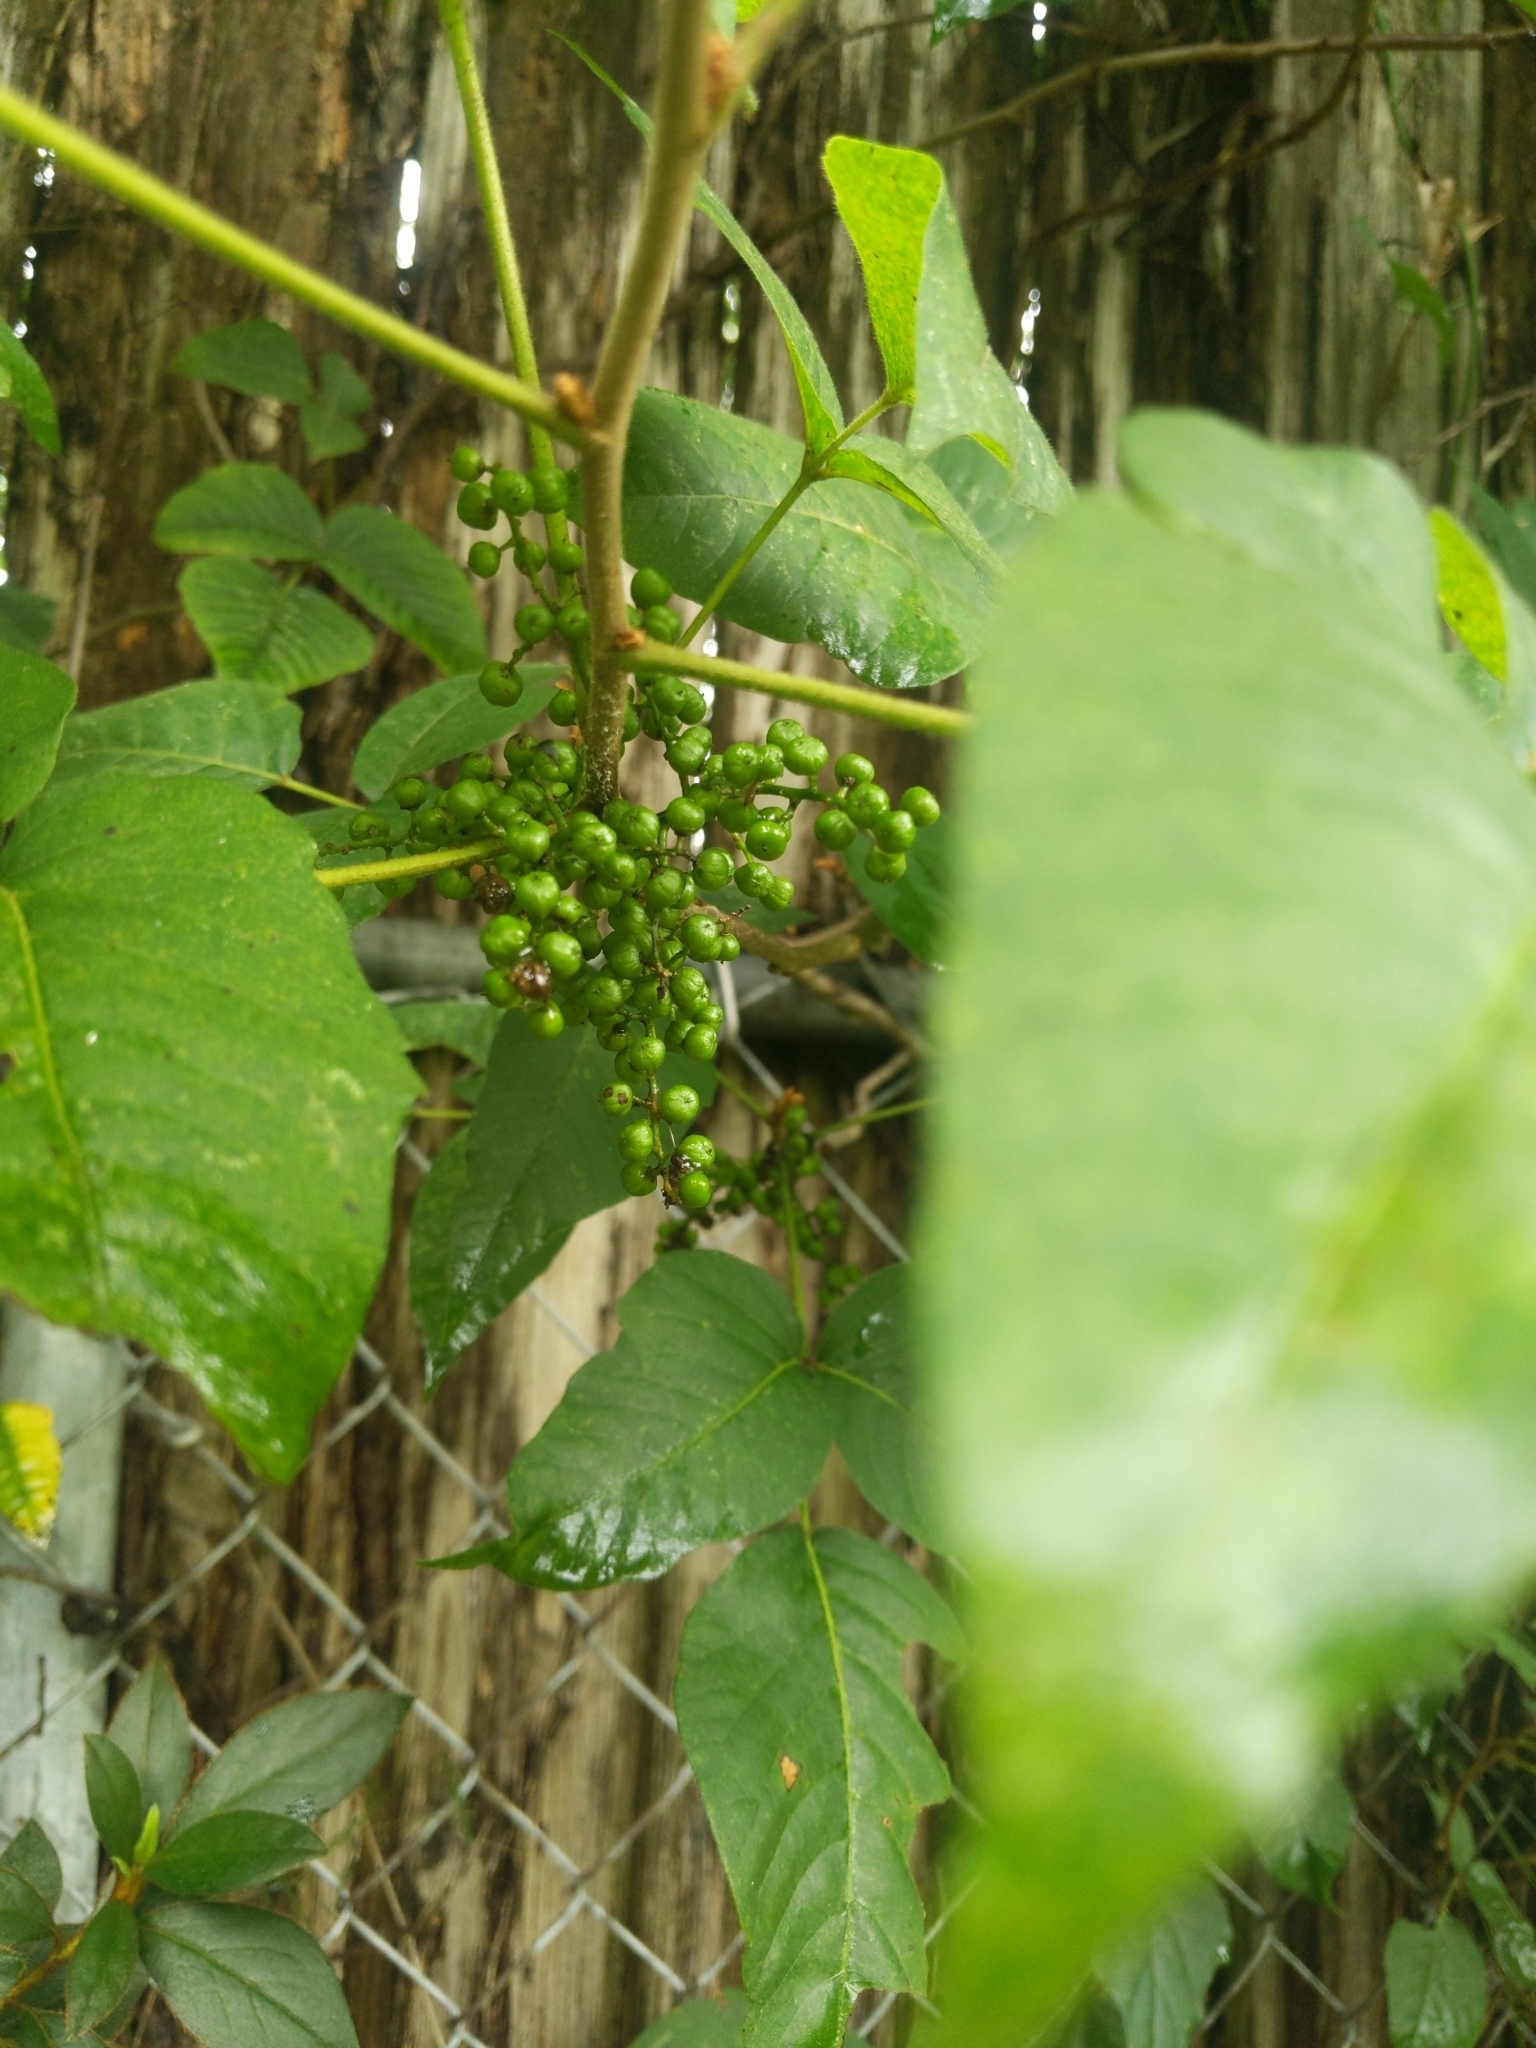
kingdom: Plantae
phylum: Tracheophyta
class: Magnoliopsida
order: Sapindales
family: Anacardiaceae
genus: Toxicodendron
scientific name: Toxicodendron radicans
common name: Poison ivy
